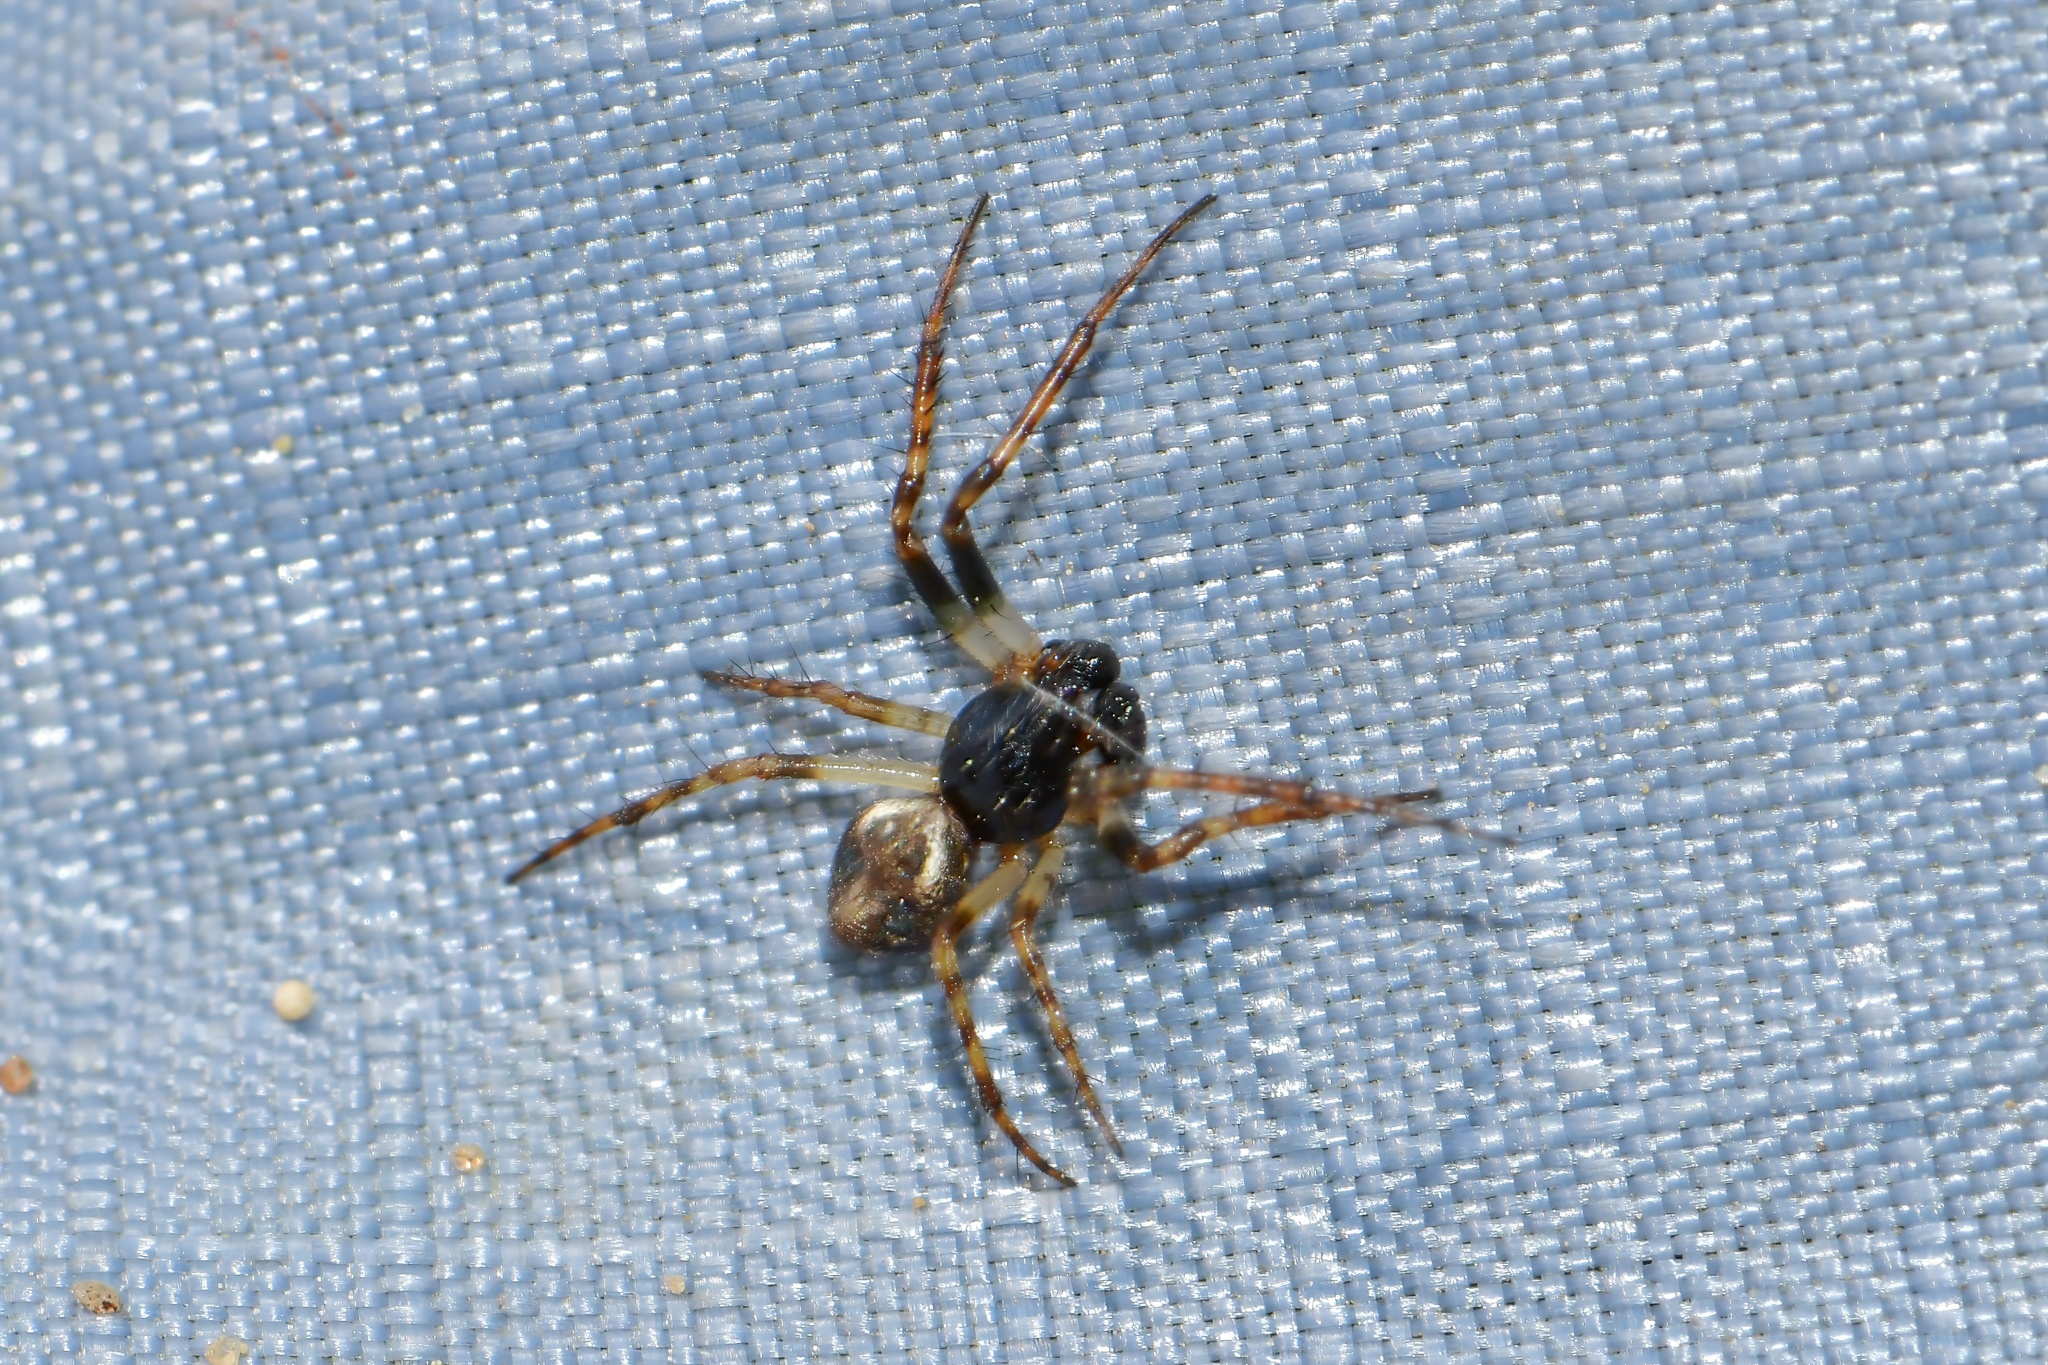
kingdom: Animalia
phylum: Arthropoda
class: Arachnida
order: Araneae
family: Araneidae
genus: Cyclosa
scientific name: Cyclosa conica
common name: Conical trashline orbweaver
